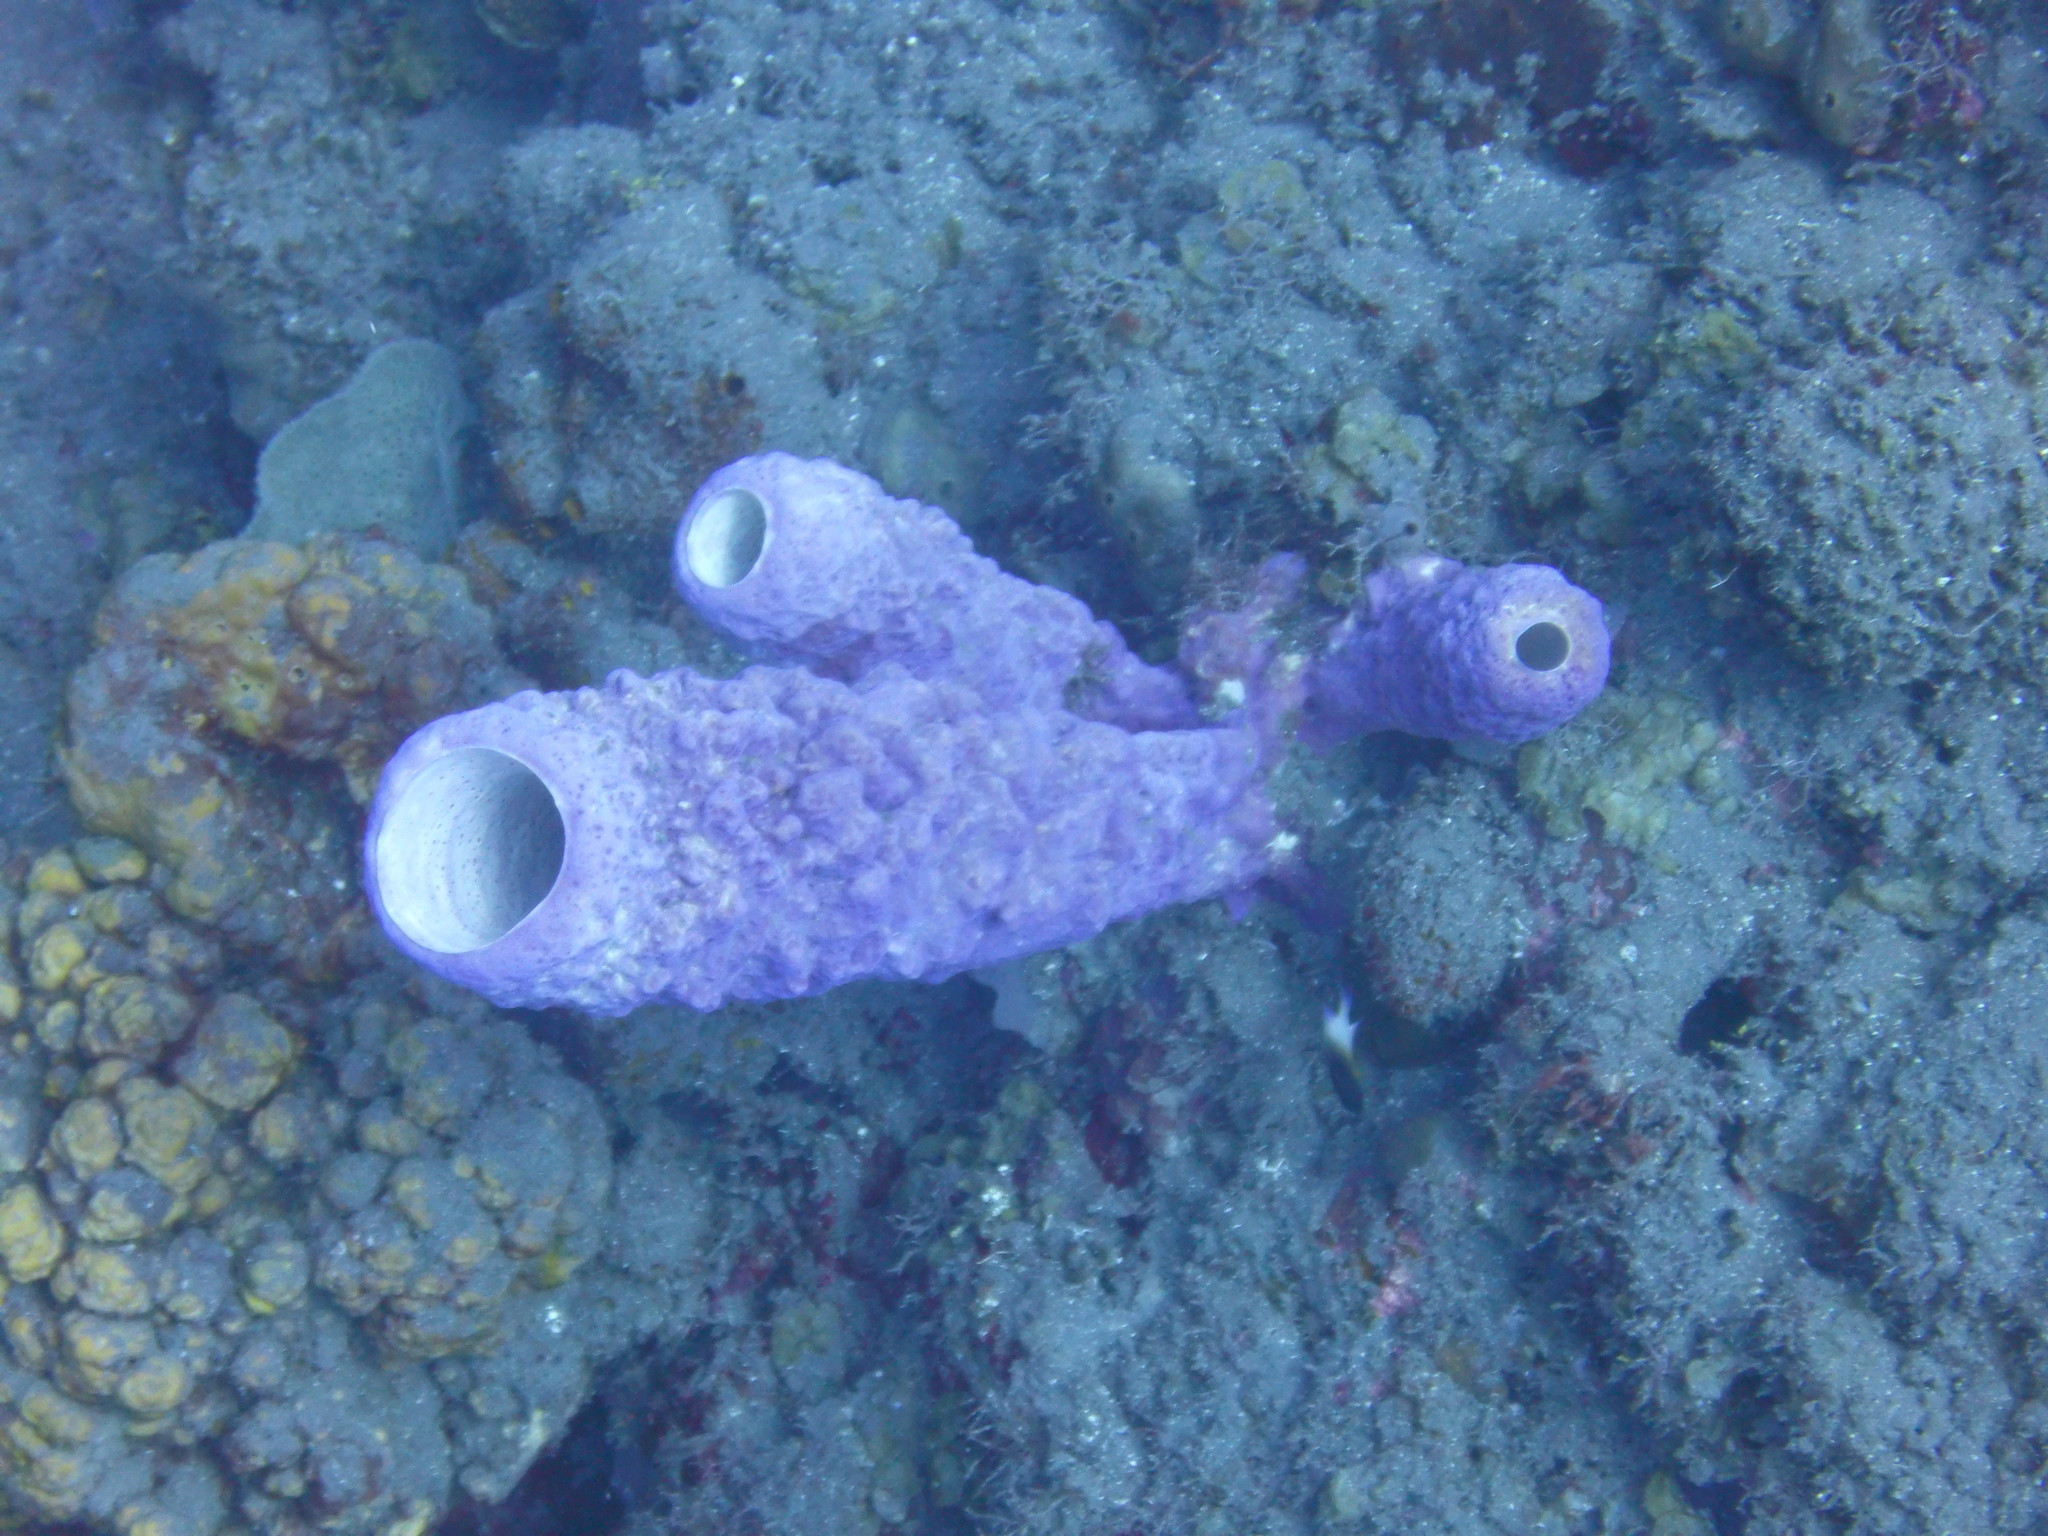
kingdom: Animalia
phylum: Porifera
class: Demospongiae
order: Verongiida
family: Aplysinidae
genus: Aplysina
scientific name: Aplysina archeri
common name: Stove-pipe sponge
